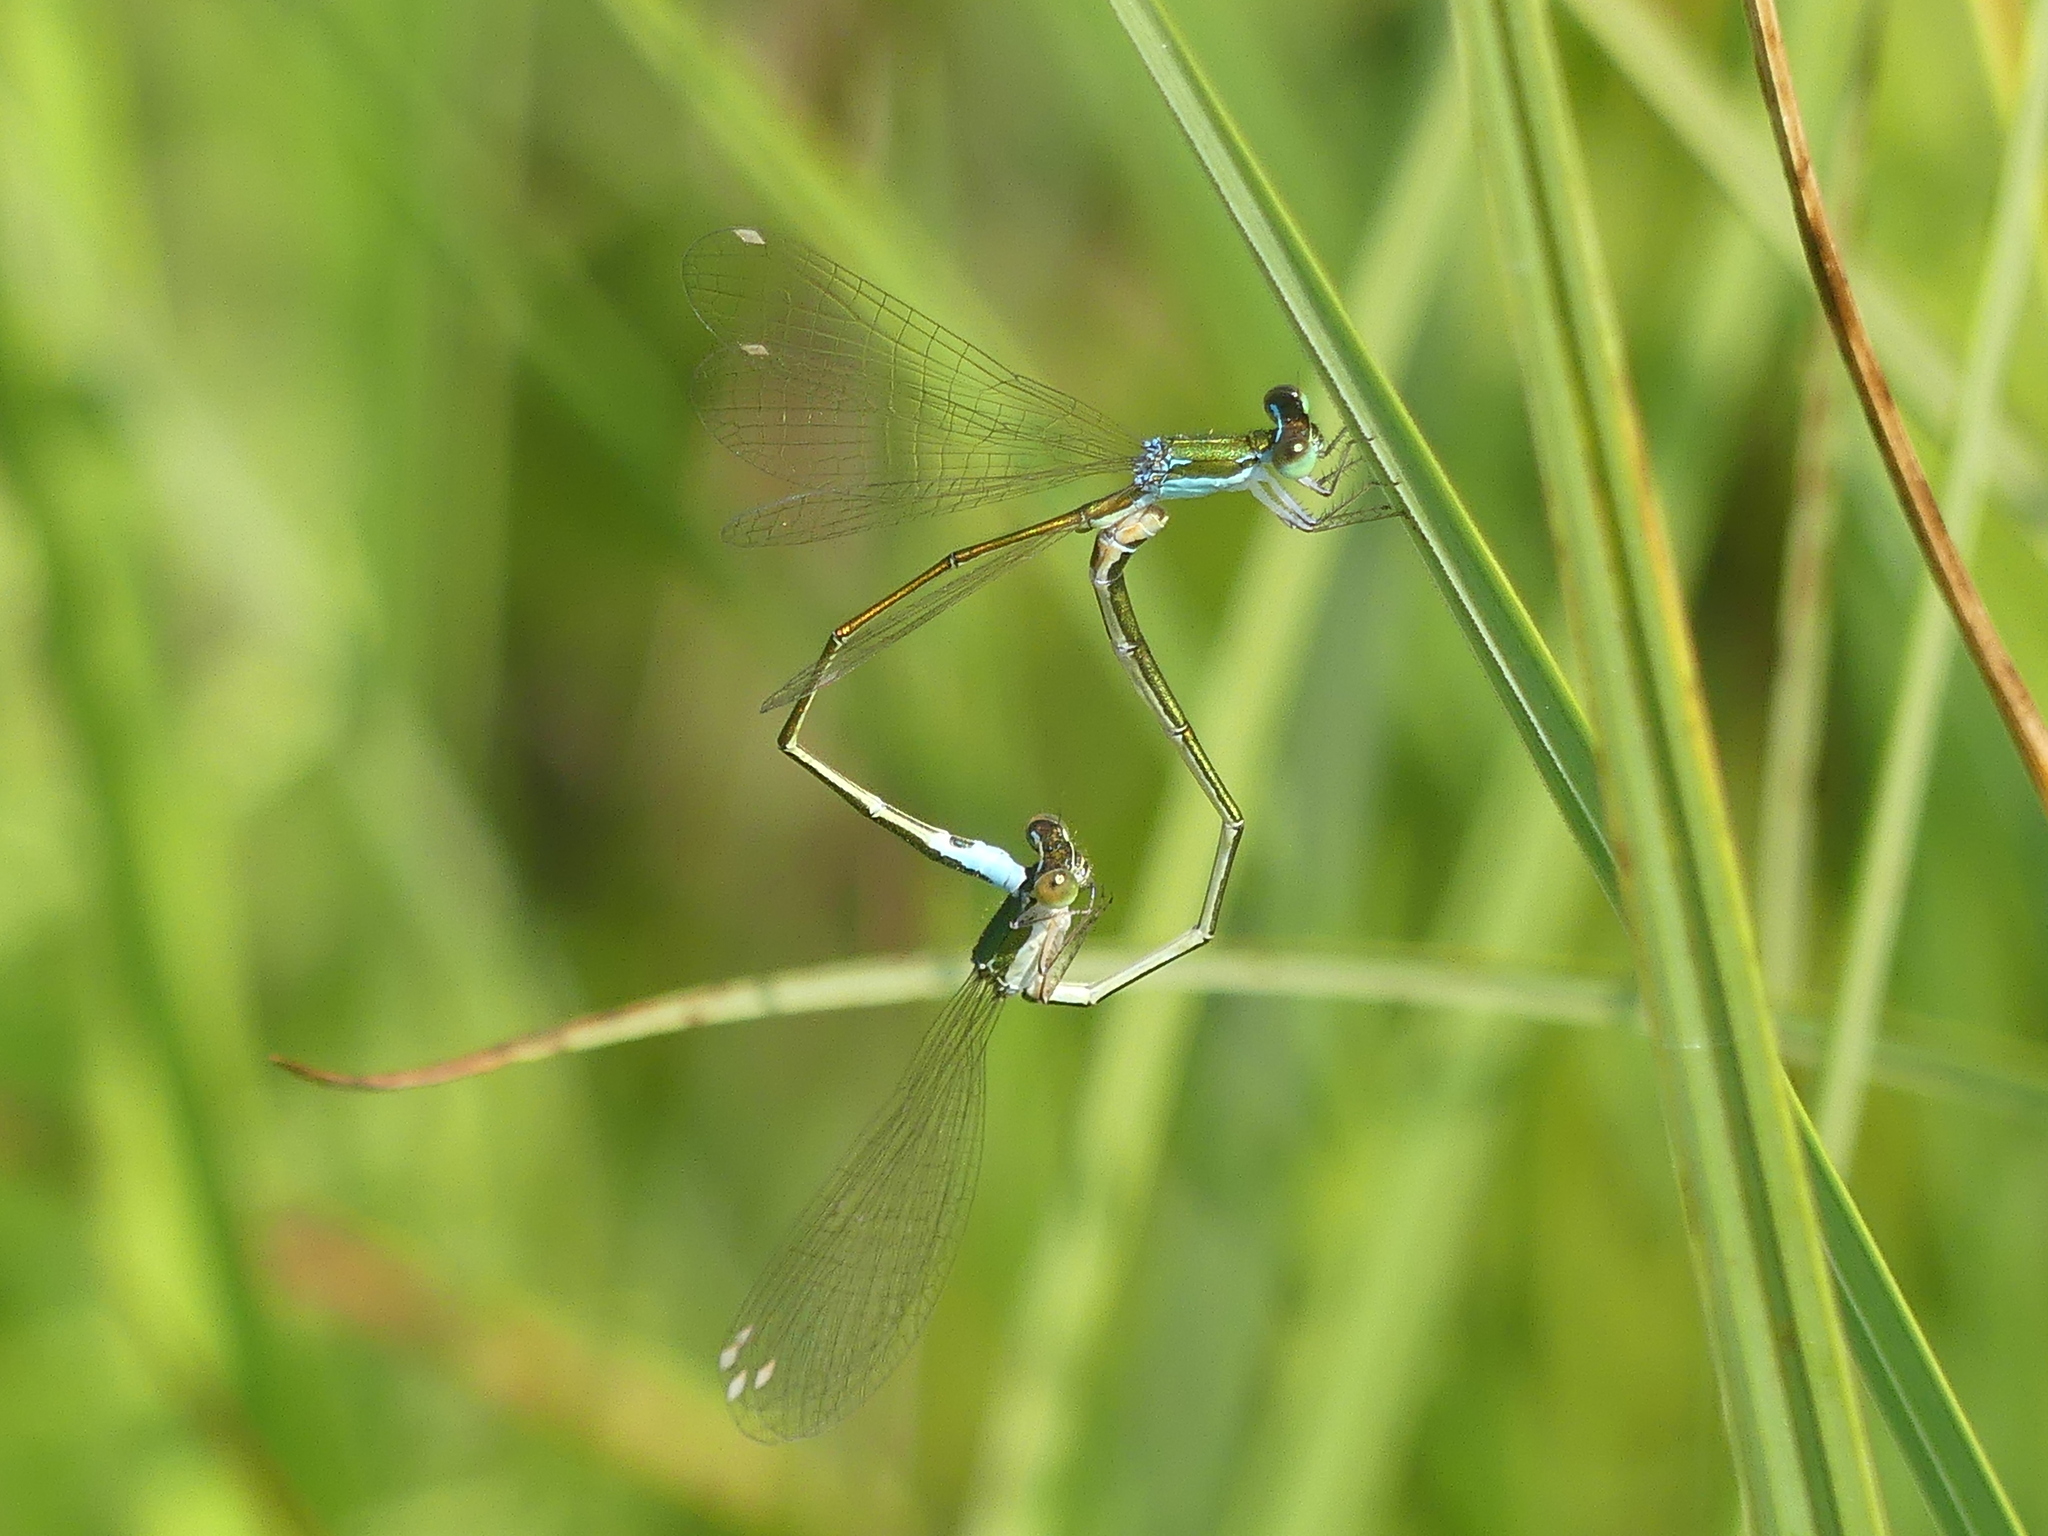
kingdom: Animalia
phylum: Arthropoda
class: Insecta
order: Odonata
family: Coenagrionidae
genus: Nehalennia
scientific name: Nehalennia speciosa
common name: Sedgling
